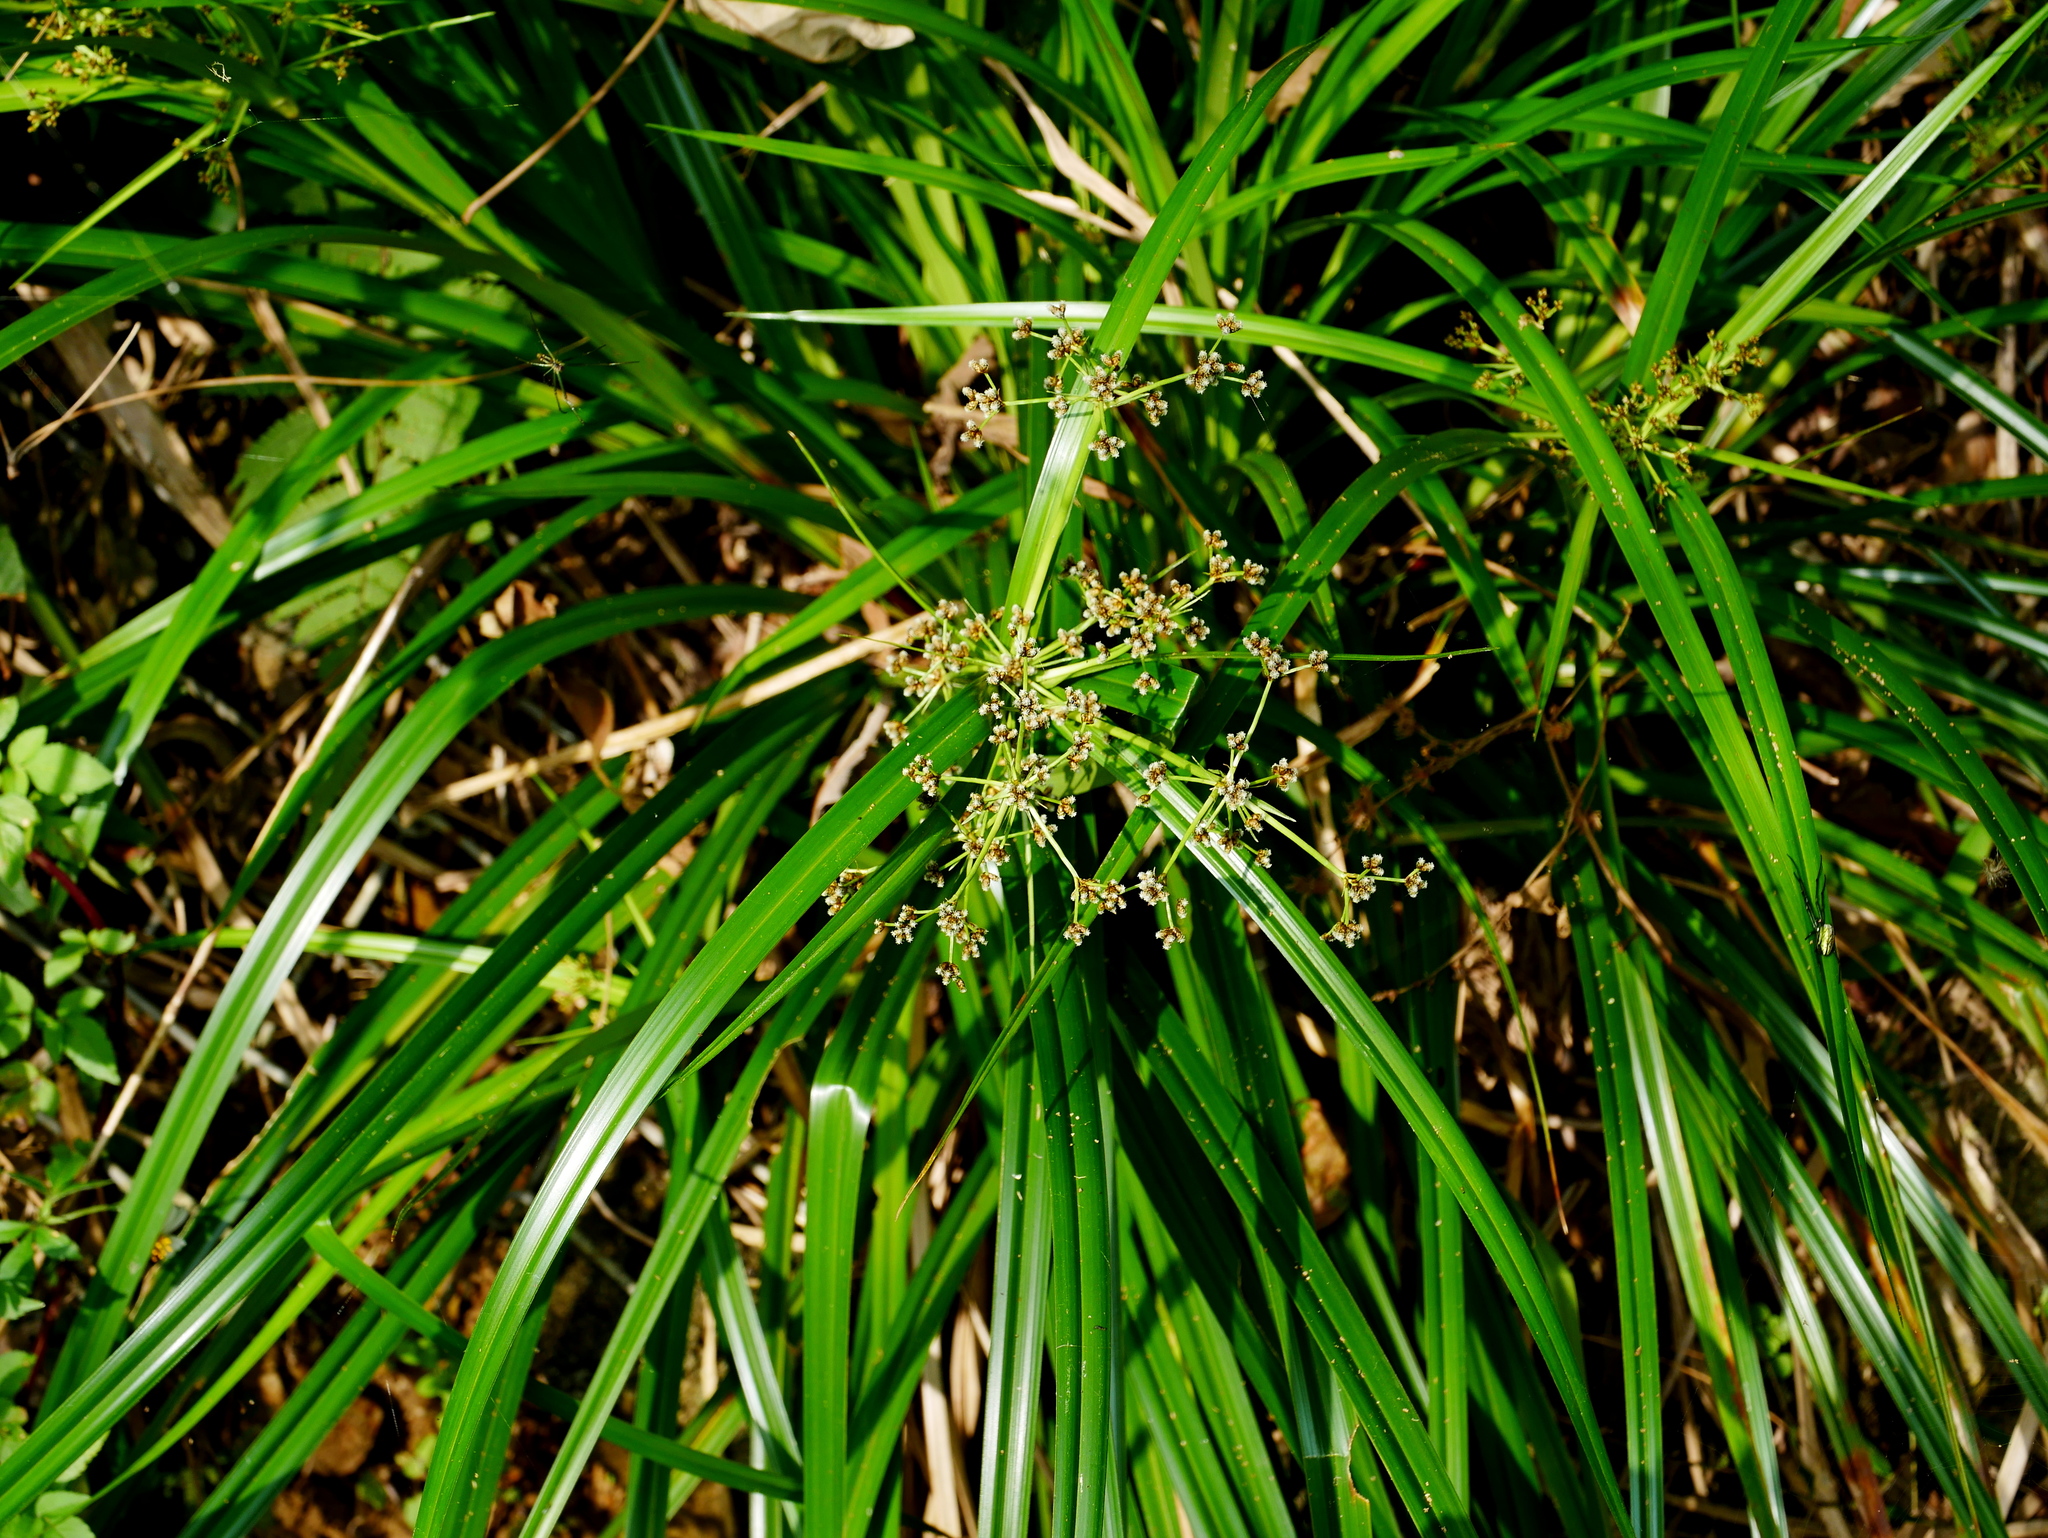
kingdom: Plantae
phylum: Tracheophyta
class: Liliopsida
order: Poales
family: Cyperaceae
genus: Scirpus
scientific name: Scirpus ternatanus
